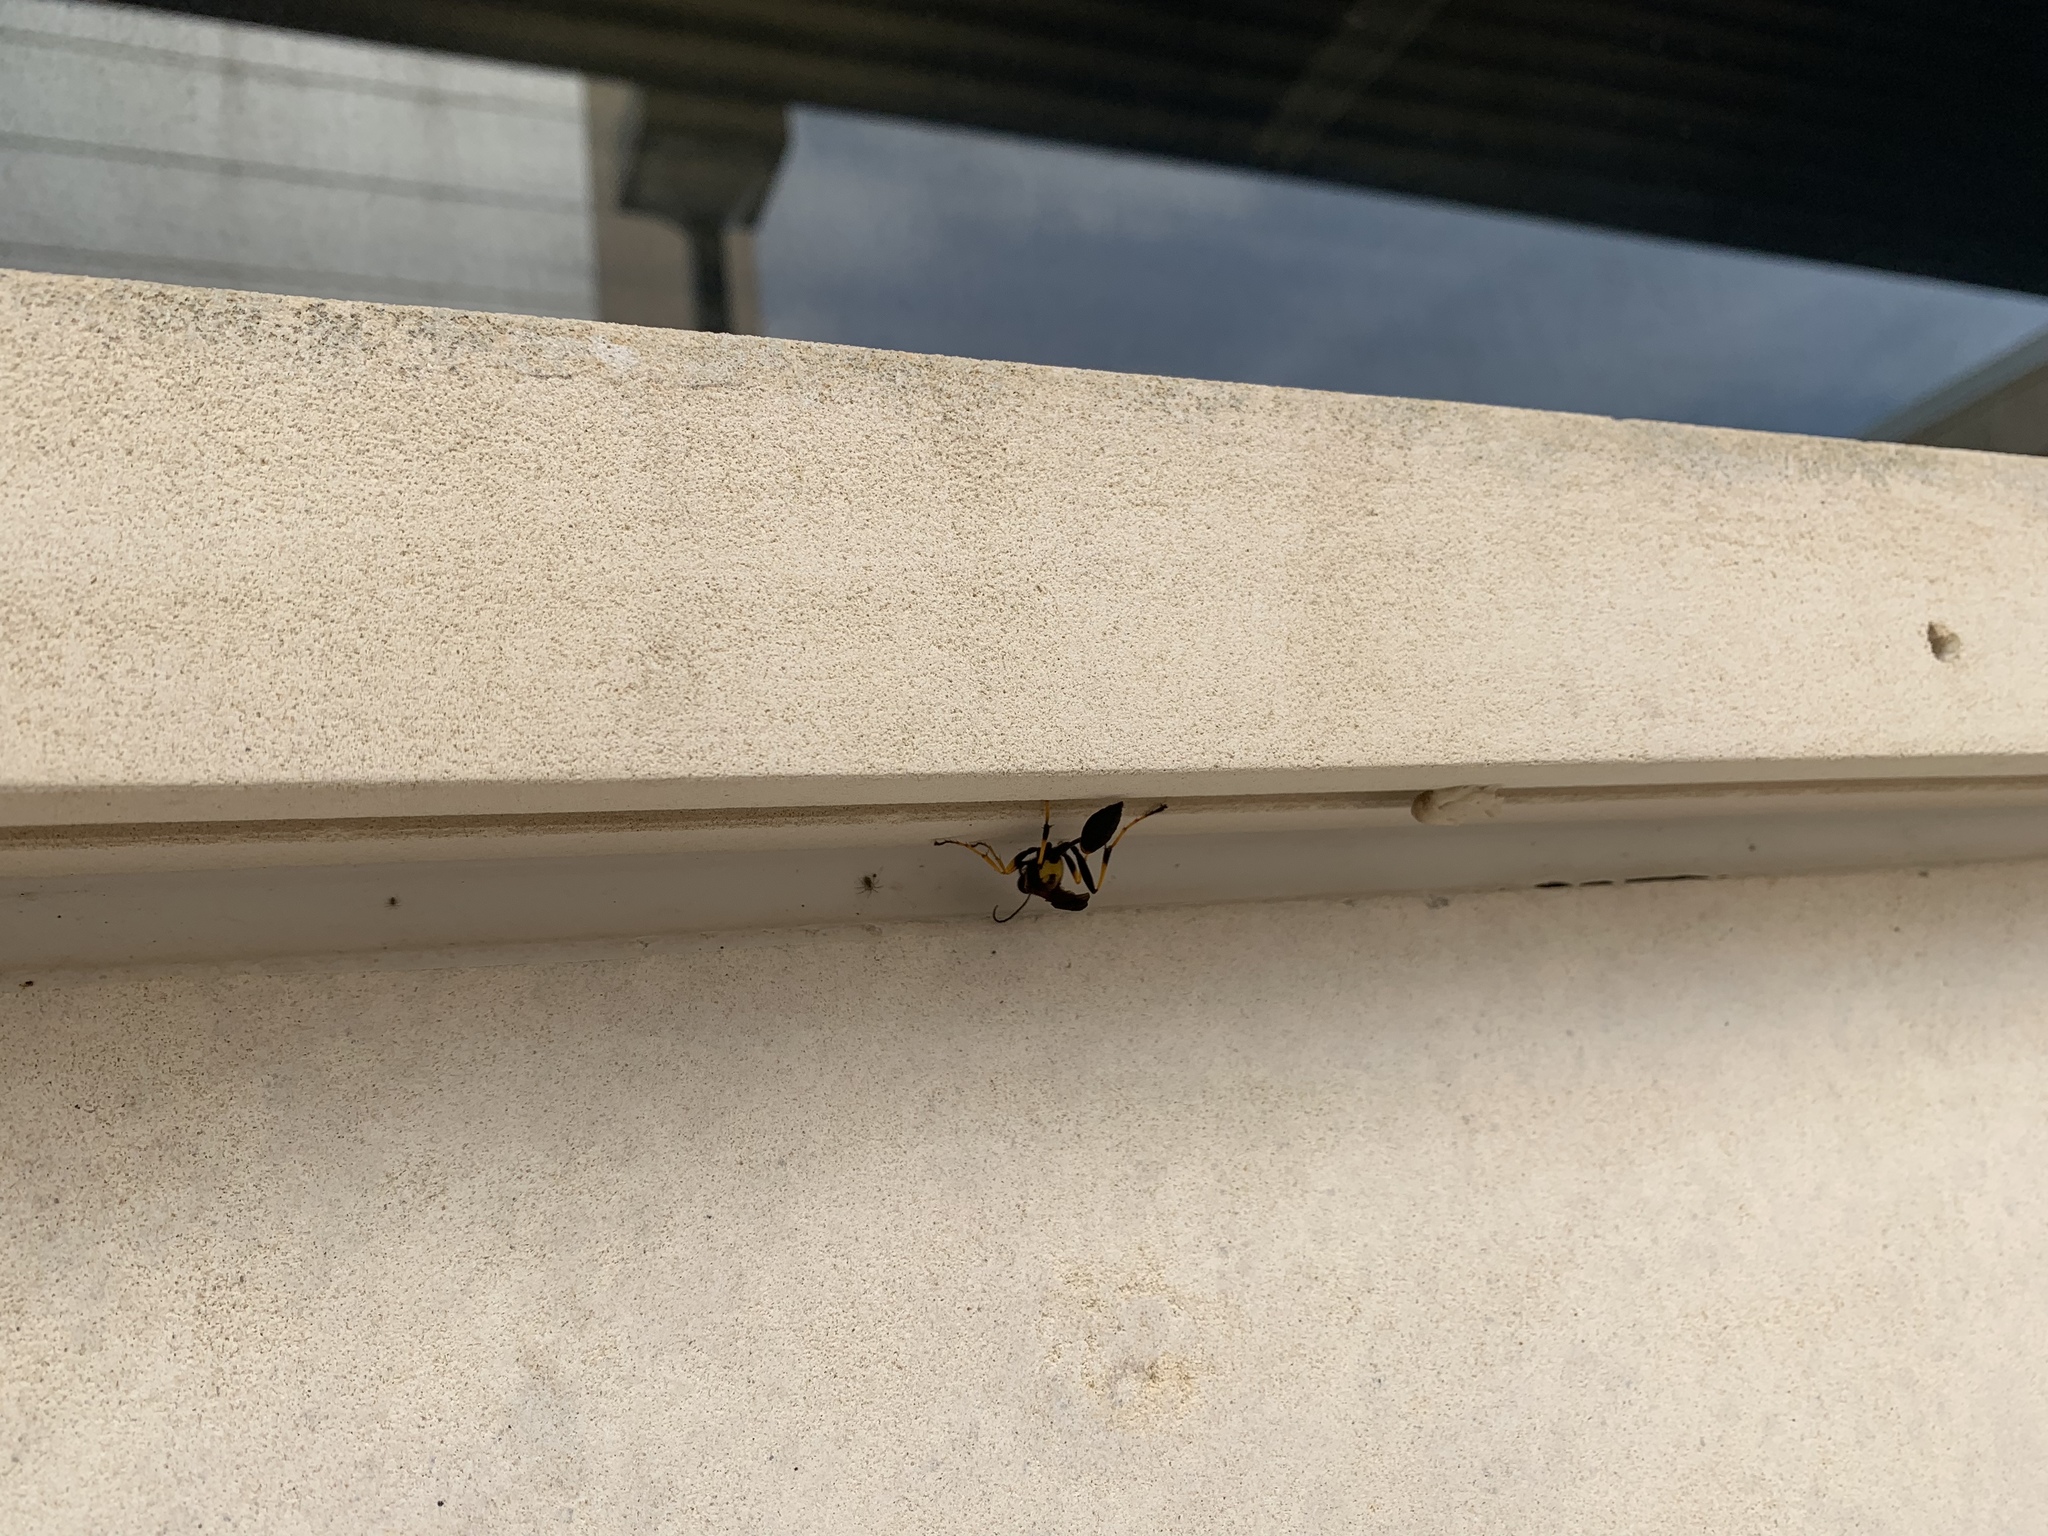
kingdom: Animalia
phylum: Arthropoda
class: Insecta
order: Hymenoptera
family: Sphecidae
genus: Sceliphron
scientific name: Sceliphron caementarium
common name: Mud dauber
